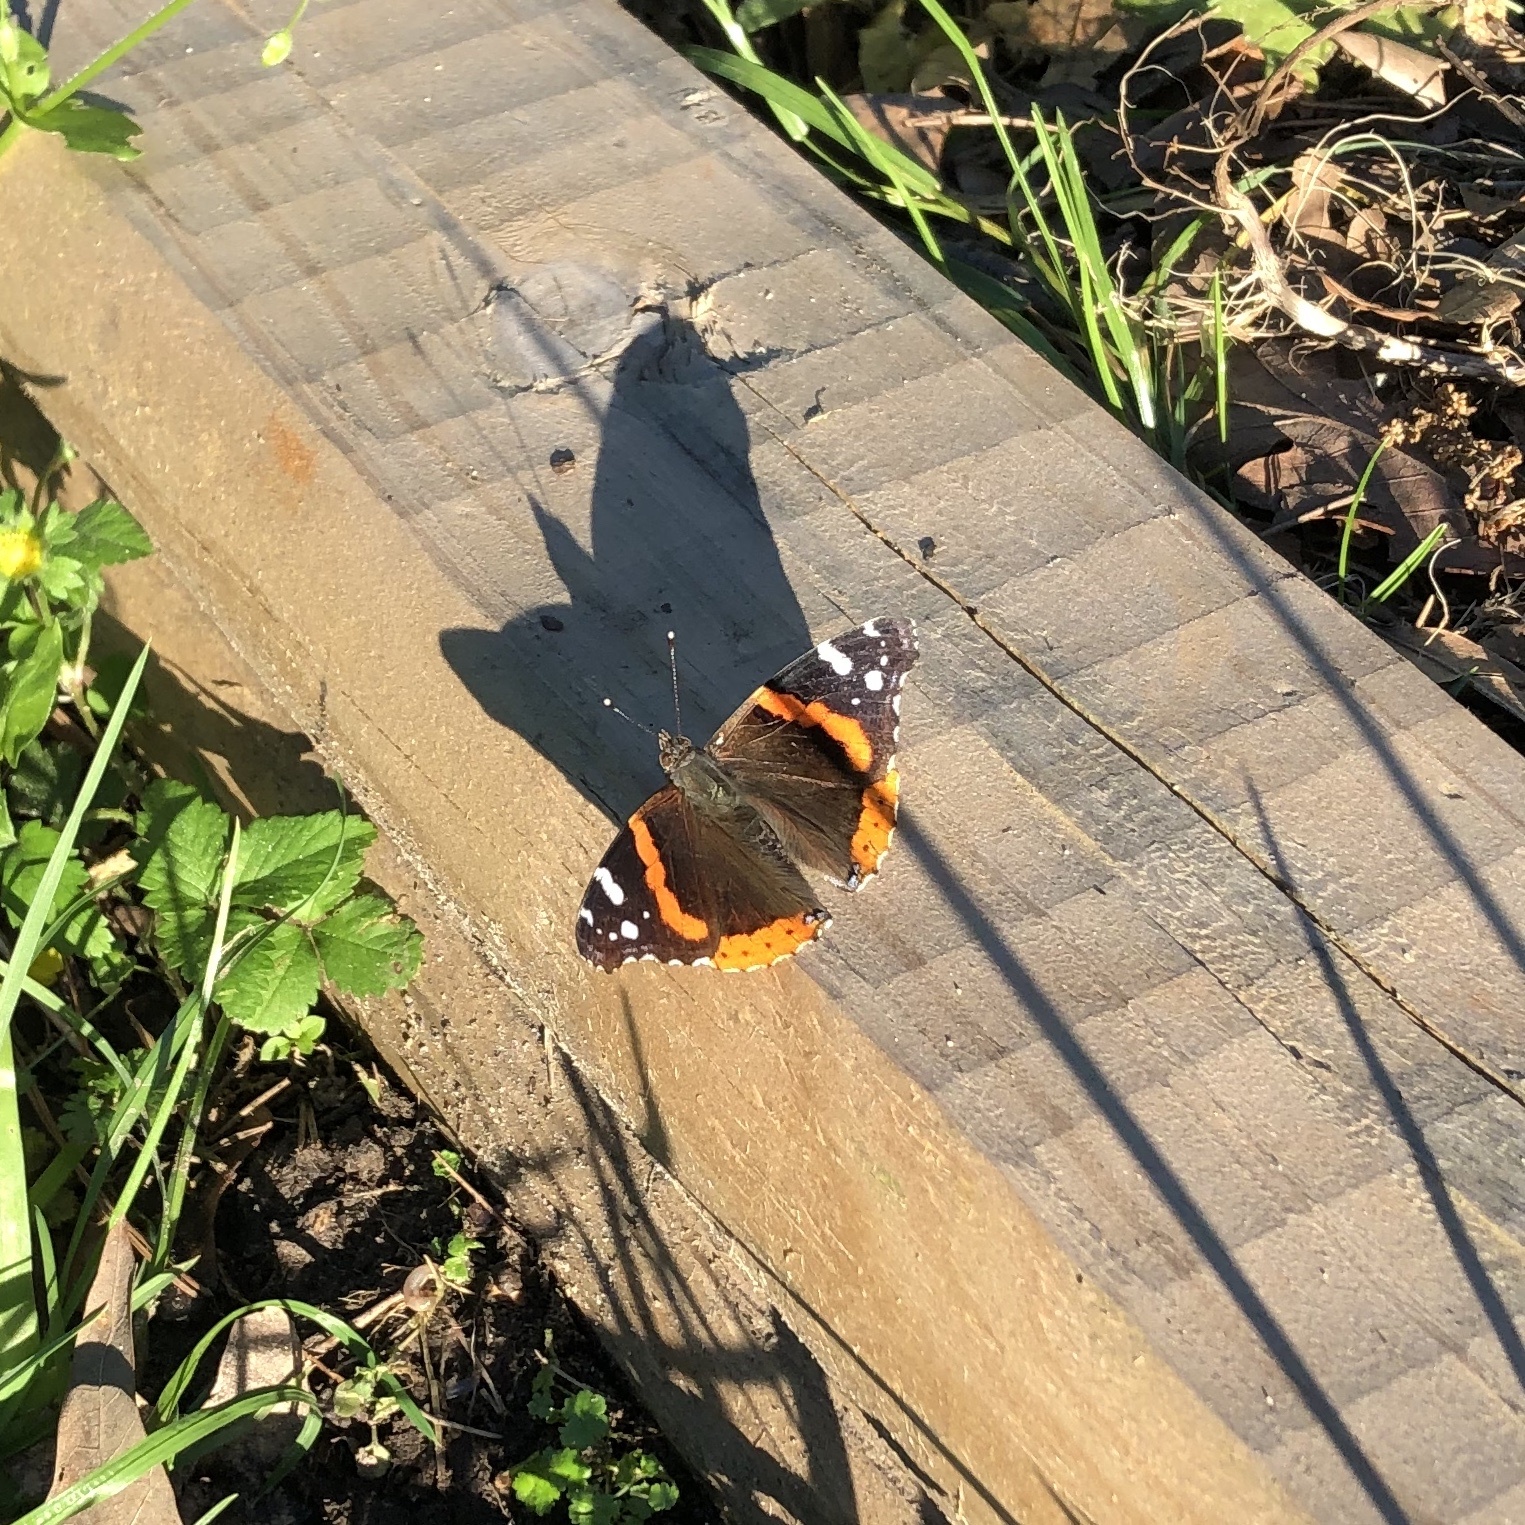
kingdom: Animalia
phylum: Arthropoda
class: Insecta
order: Lepidoptera
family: Nymphalidae
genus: Vanessa
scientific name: Vanessa atalanta
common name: Red admiral
